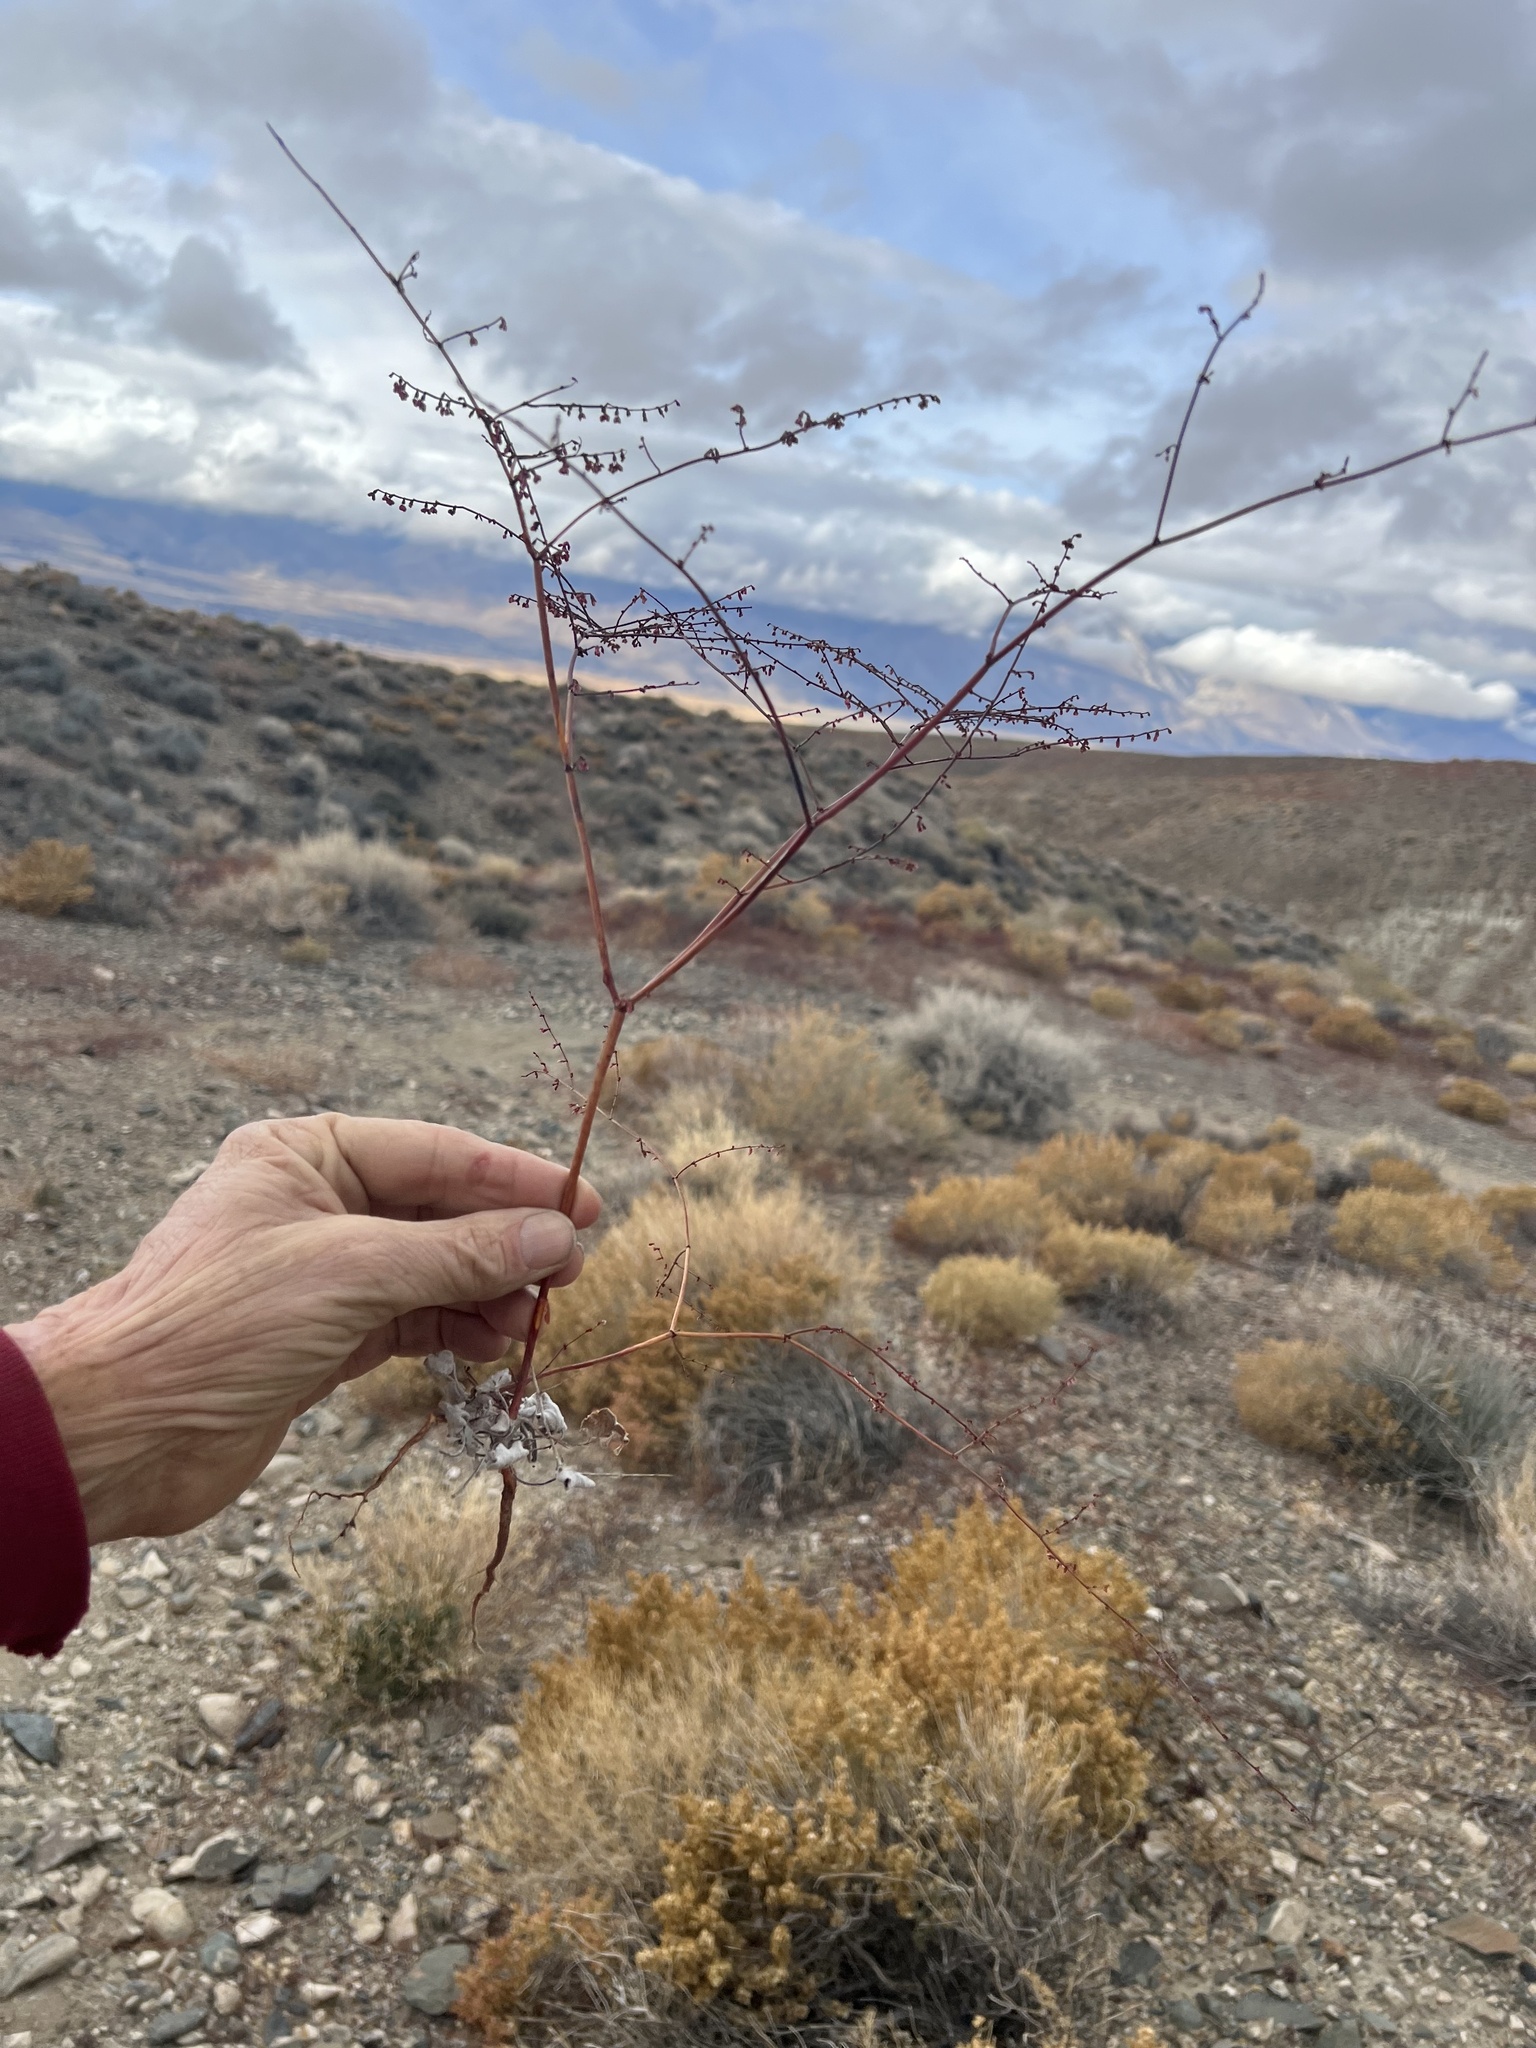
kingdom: Plantae
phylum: Tracheophyta
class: Magnoliopsida
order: Caryophyllales
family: Polygonaceae
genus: Eriogonum
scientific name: Eriogonum deflexum
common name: Skeleton-weed
